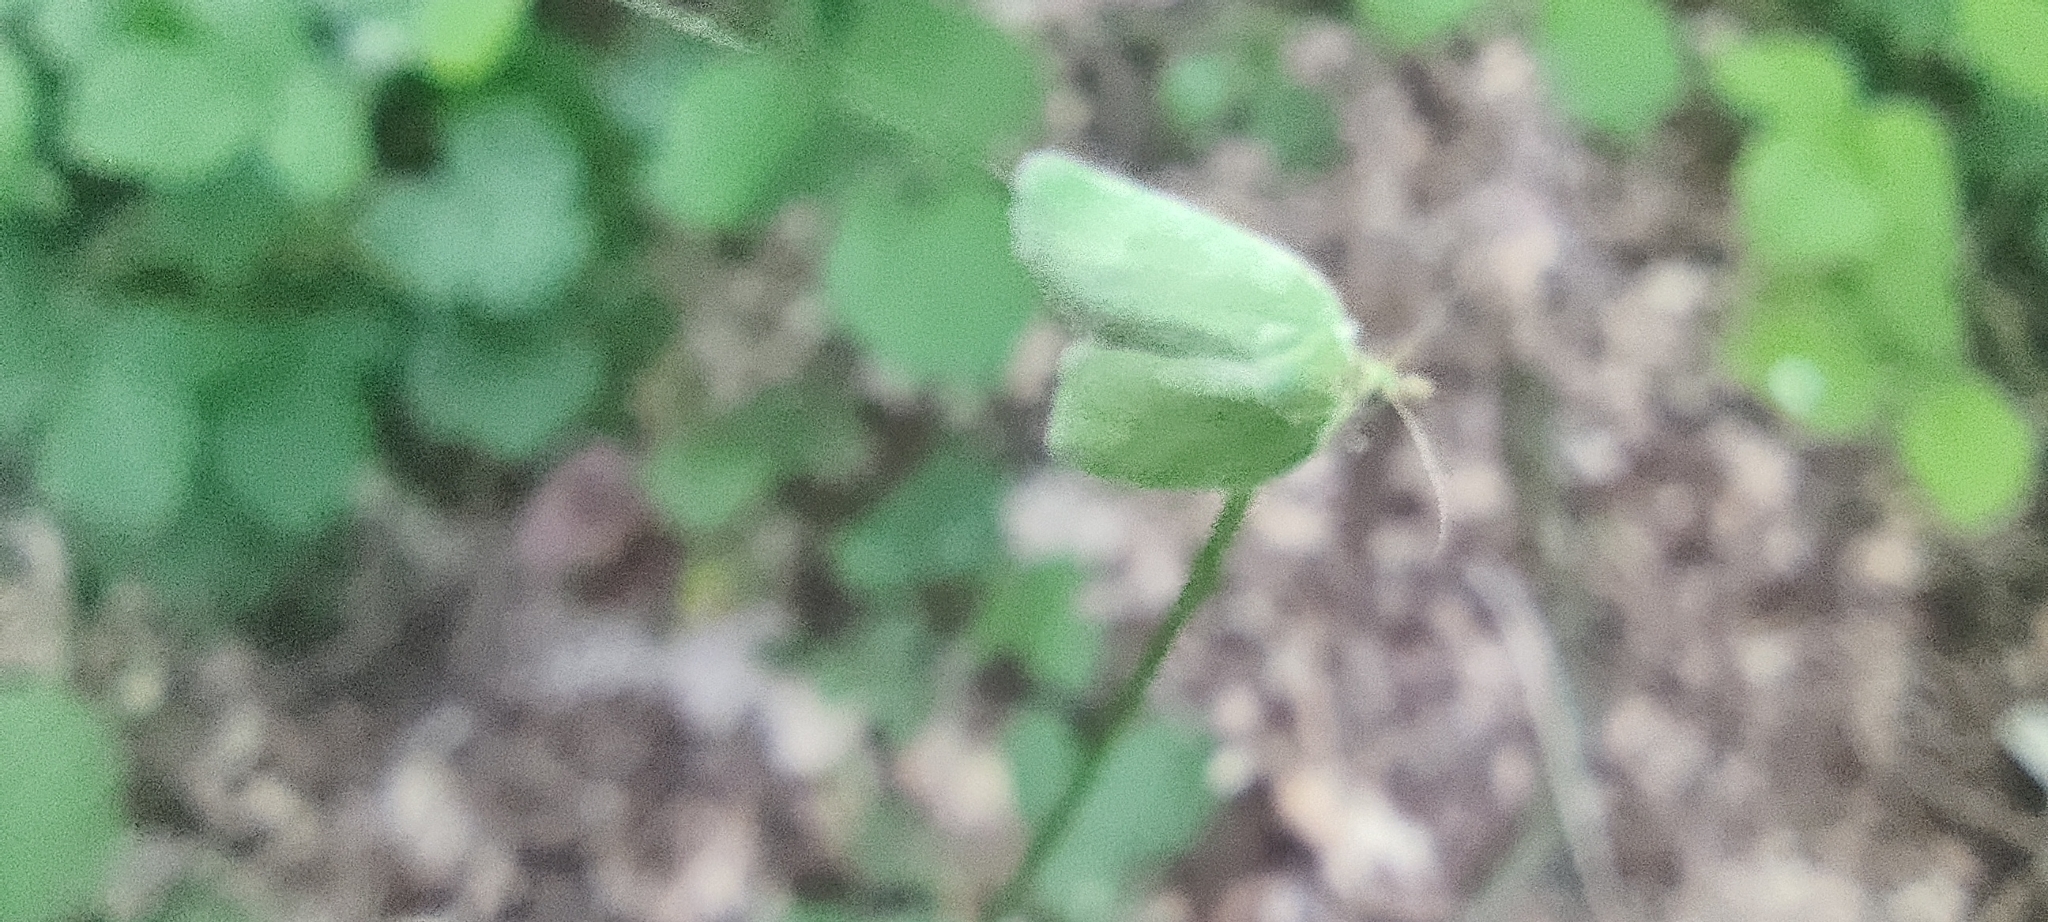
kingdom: Animalia
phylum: Arthropoda
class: Insecta
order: Lepidoptera
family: Tortricidae
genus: Tortrix
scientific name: Tortrix viridana
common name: Green oak tortrix
